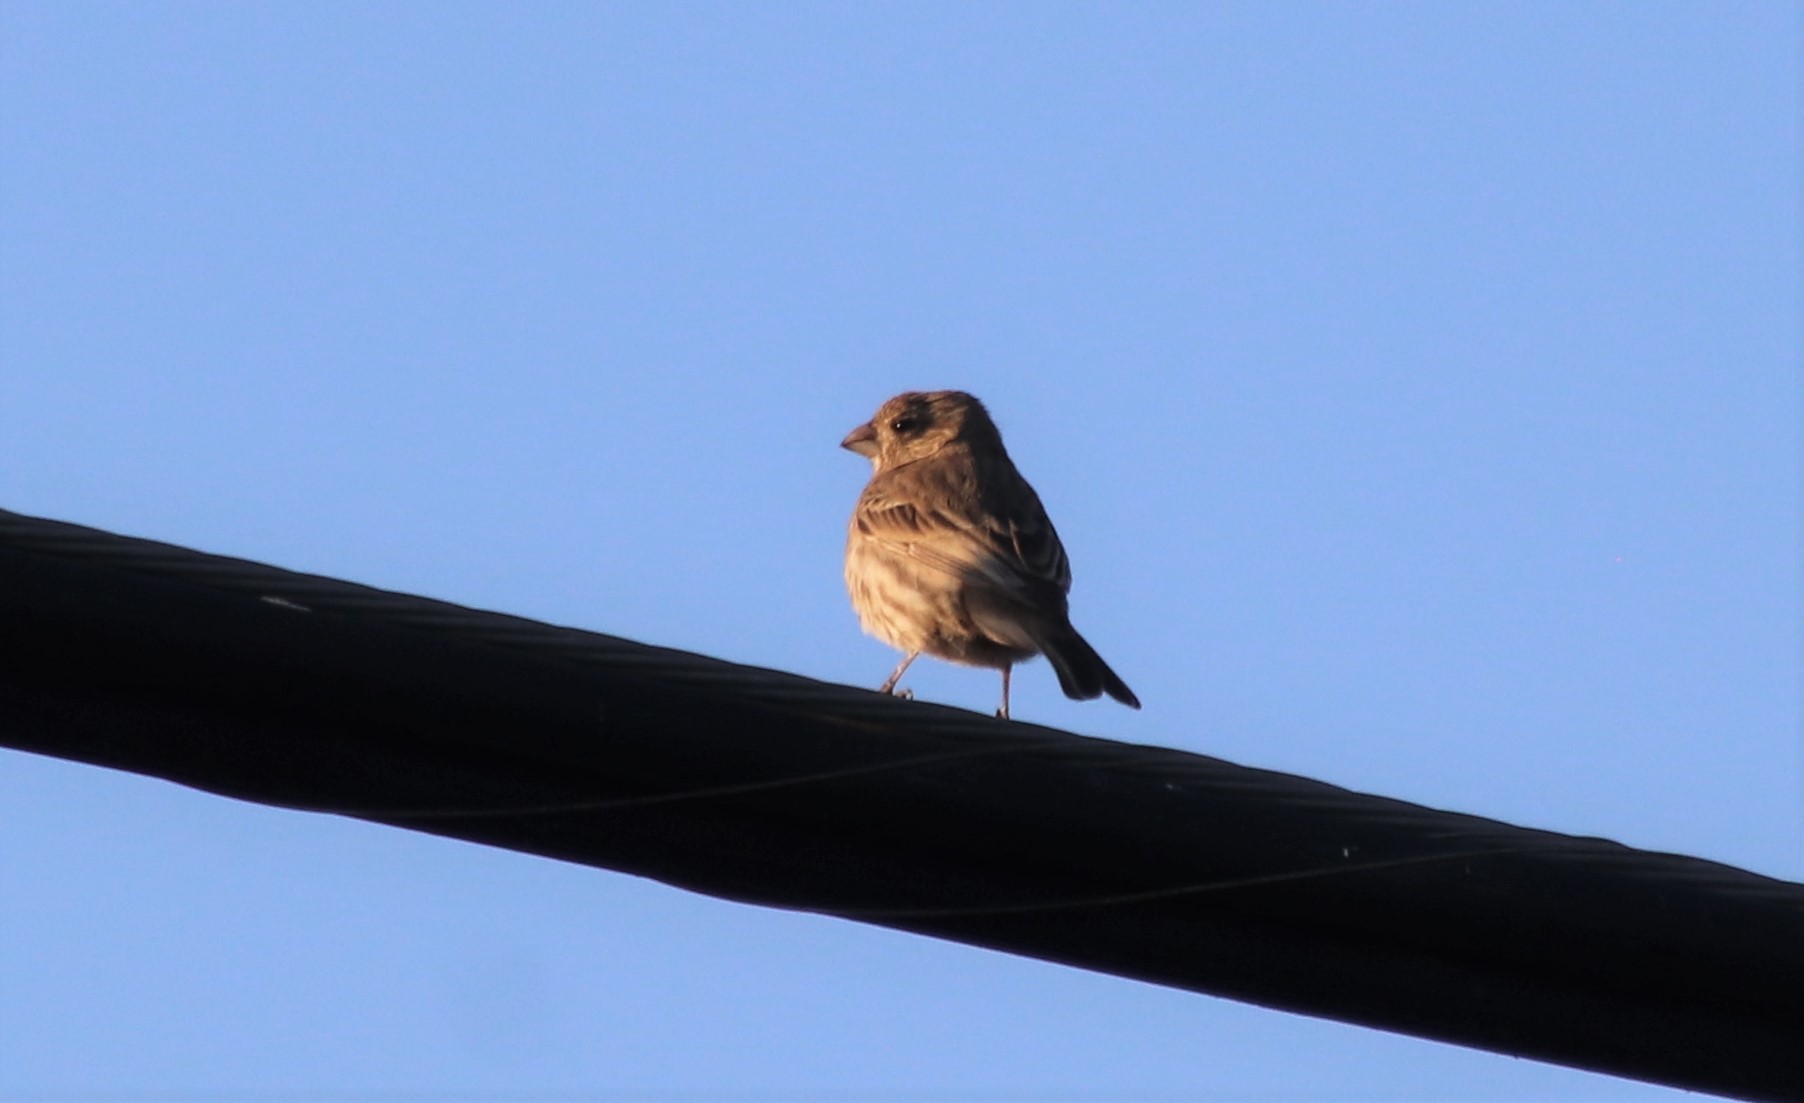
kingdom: Animalia
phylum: Chordata
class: Aves
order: Passeriformes
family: Fringillidae
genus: Haemorhous
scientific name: Haemorhous mexicanus
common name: House finch
